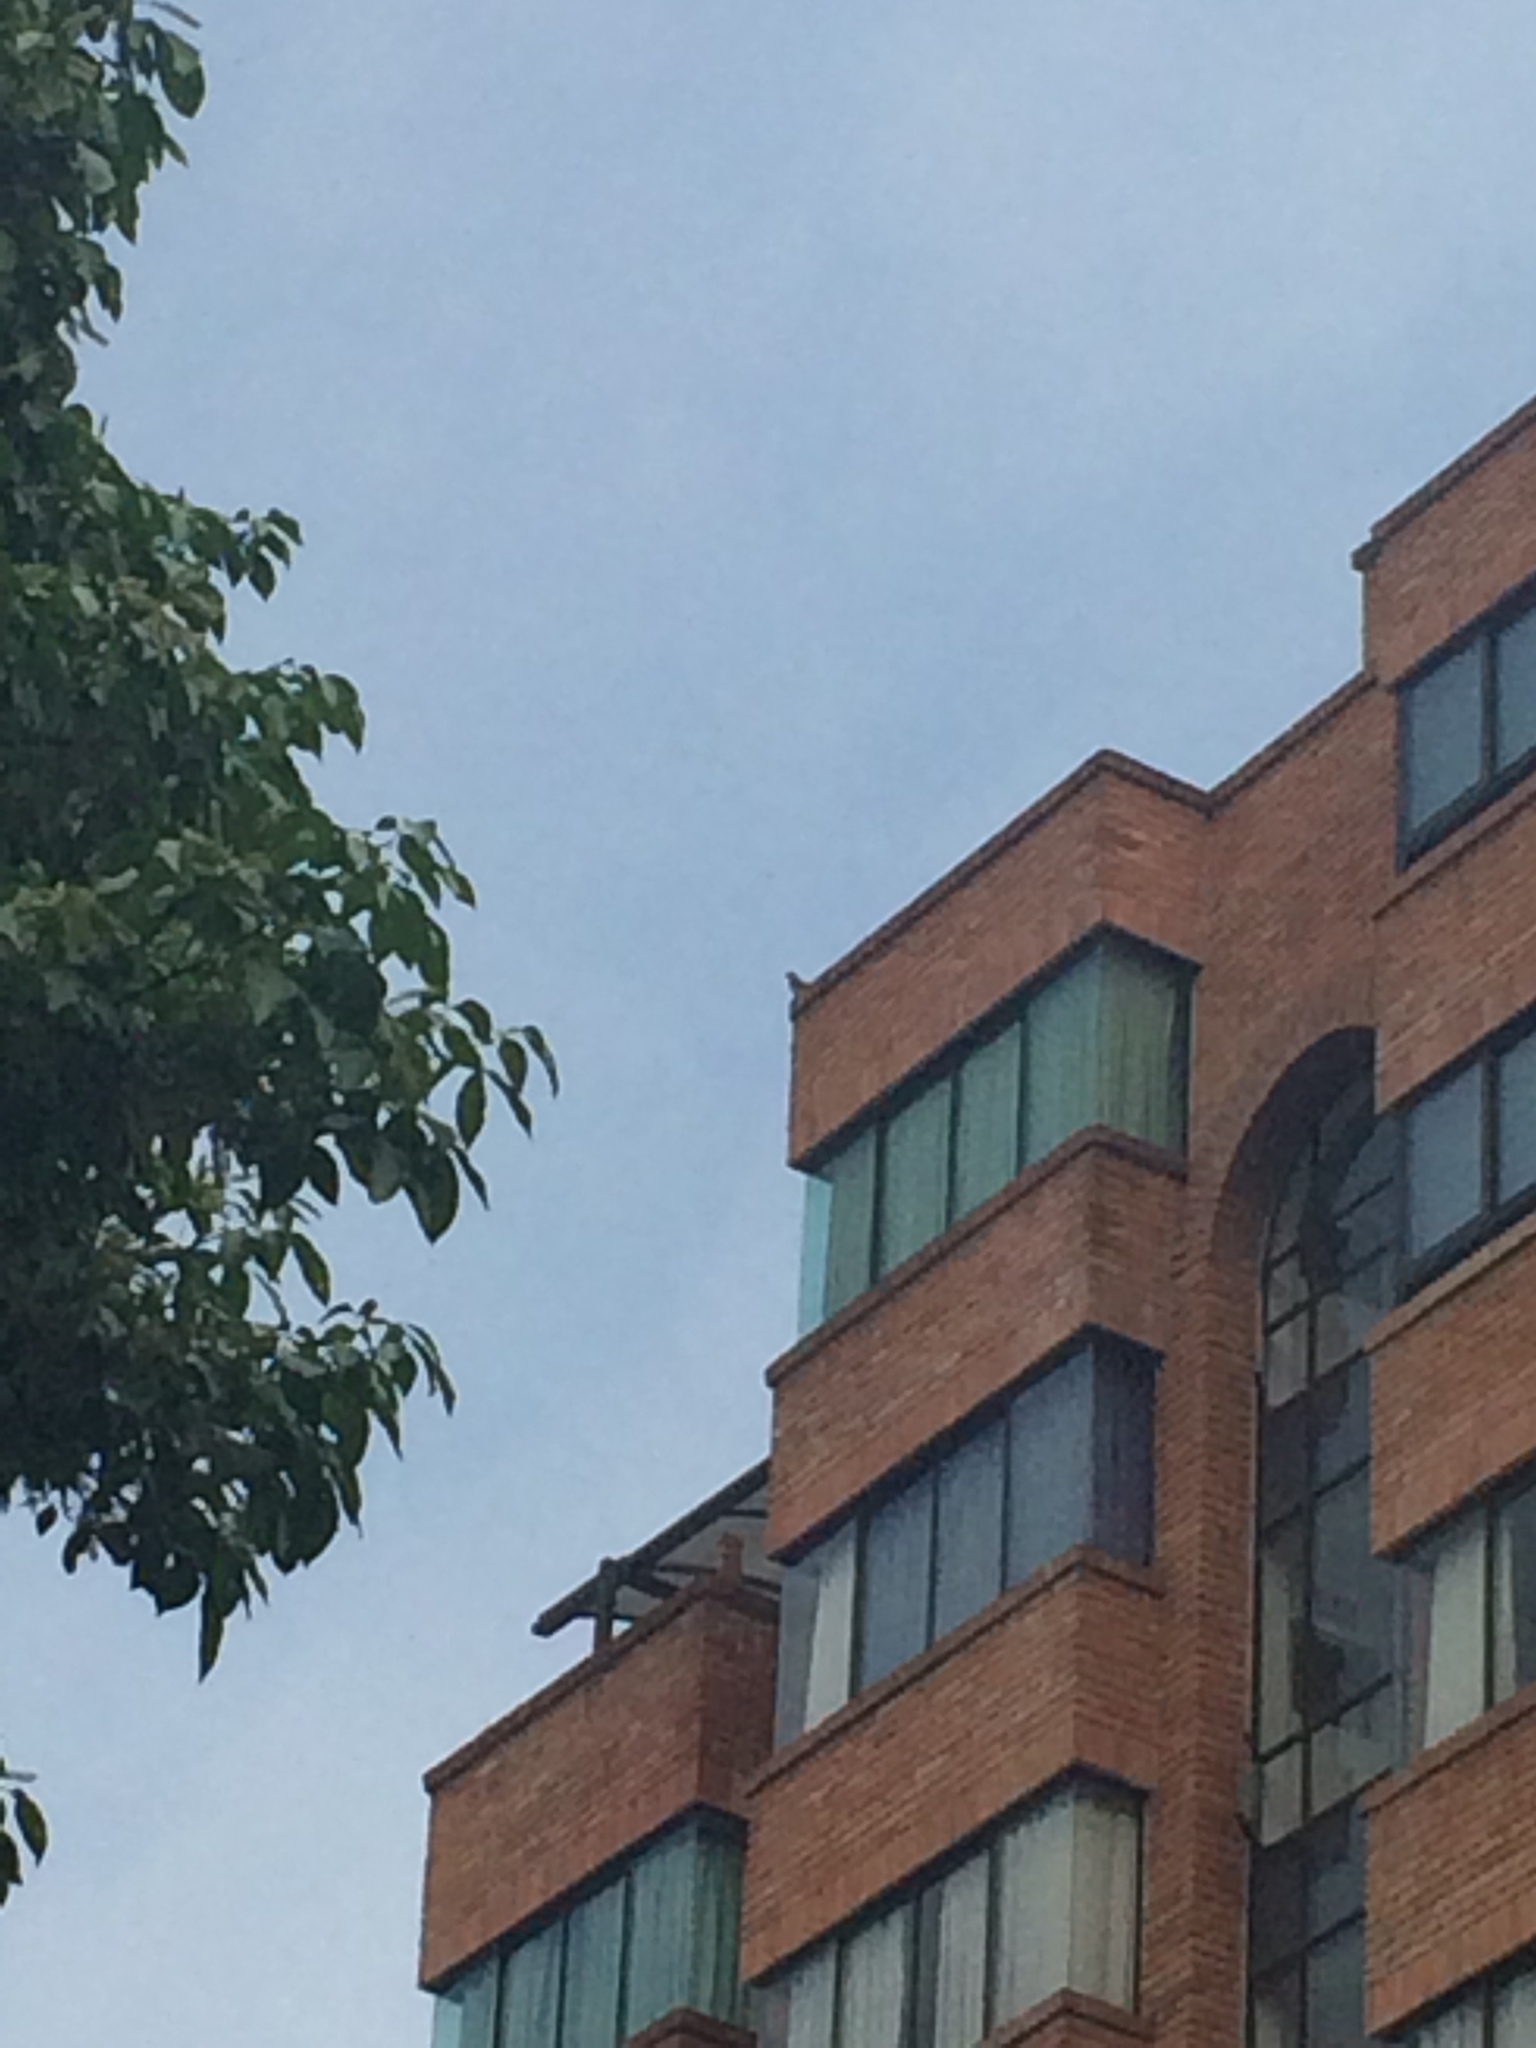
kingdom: Animalia
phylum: Chordata
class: Aves
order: Accipitriformes
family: Accipitridae
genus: Rupornis
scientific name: Rupornis magnirostris
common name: Roadside hawk
